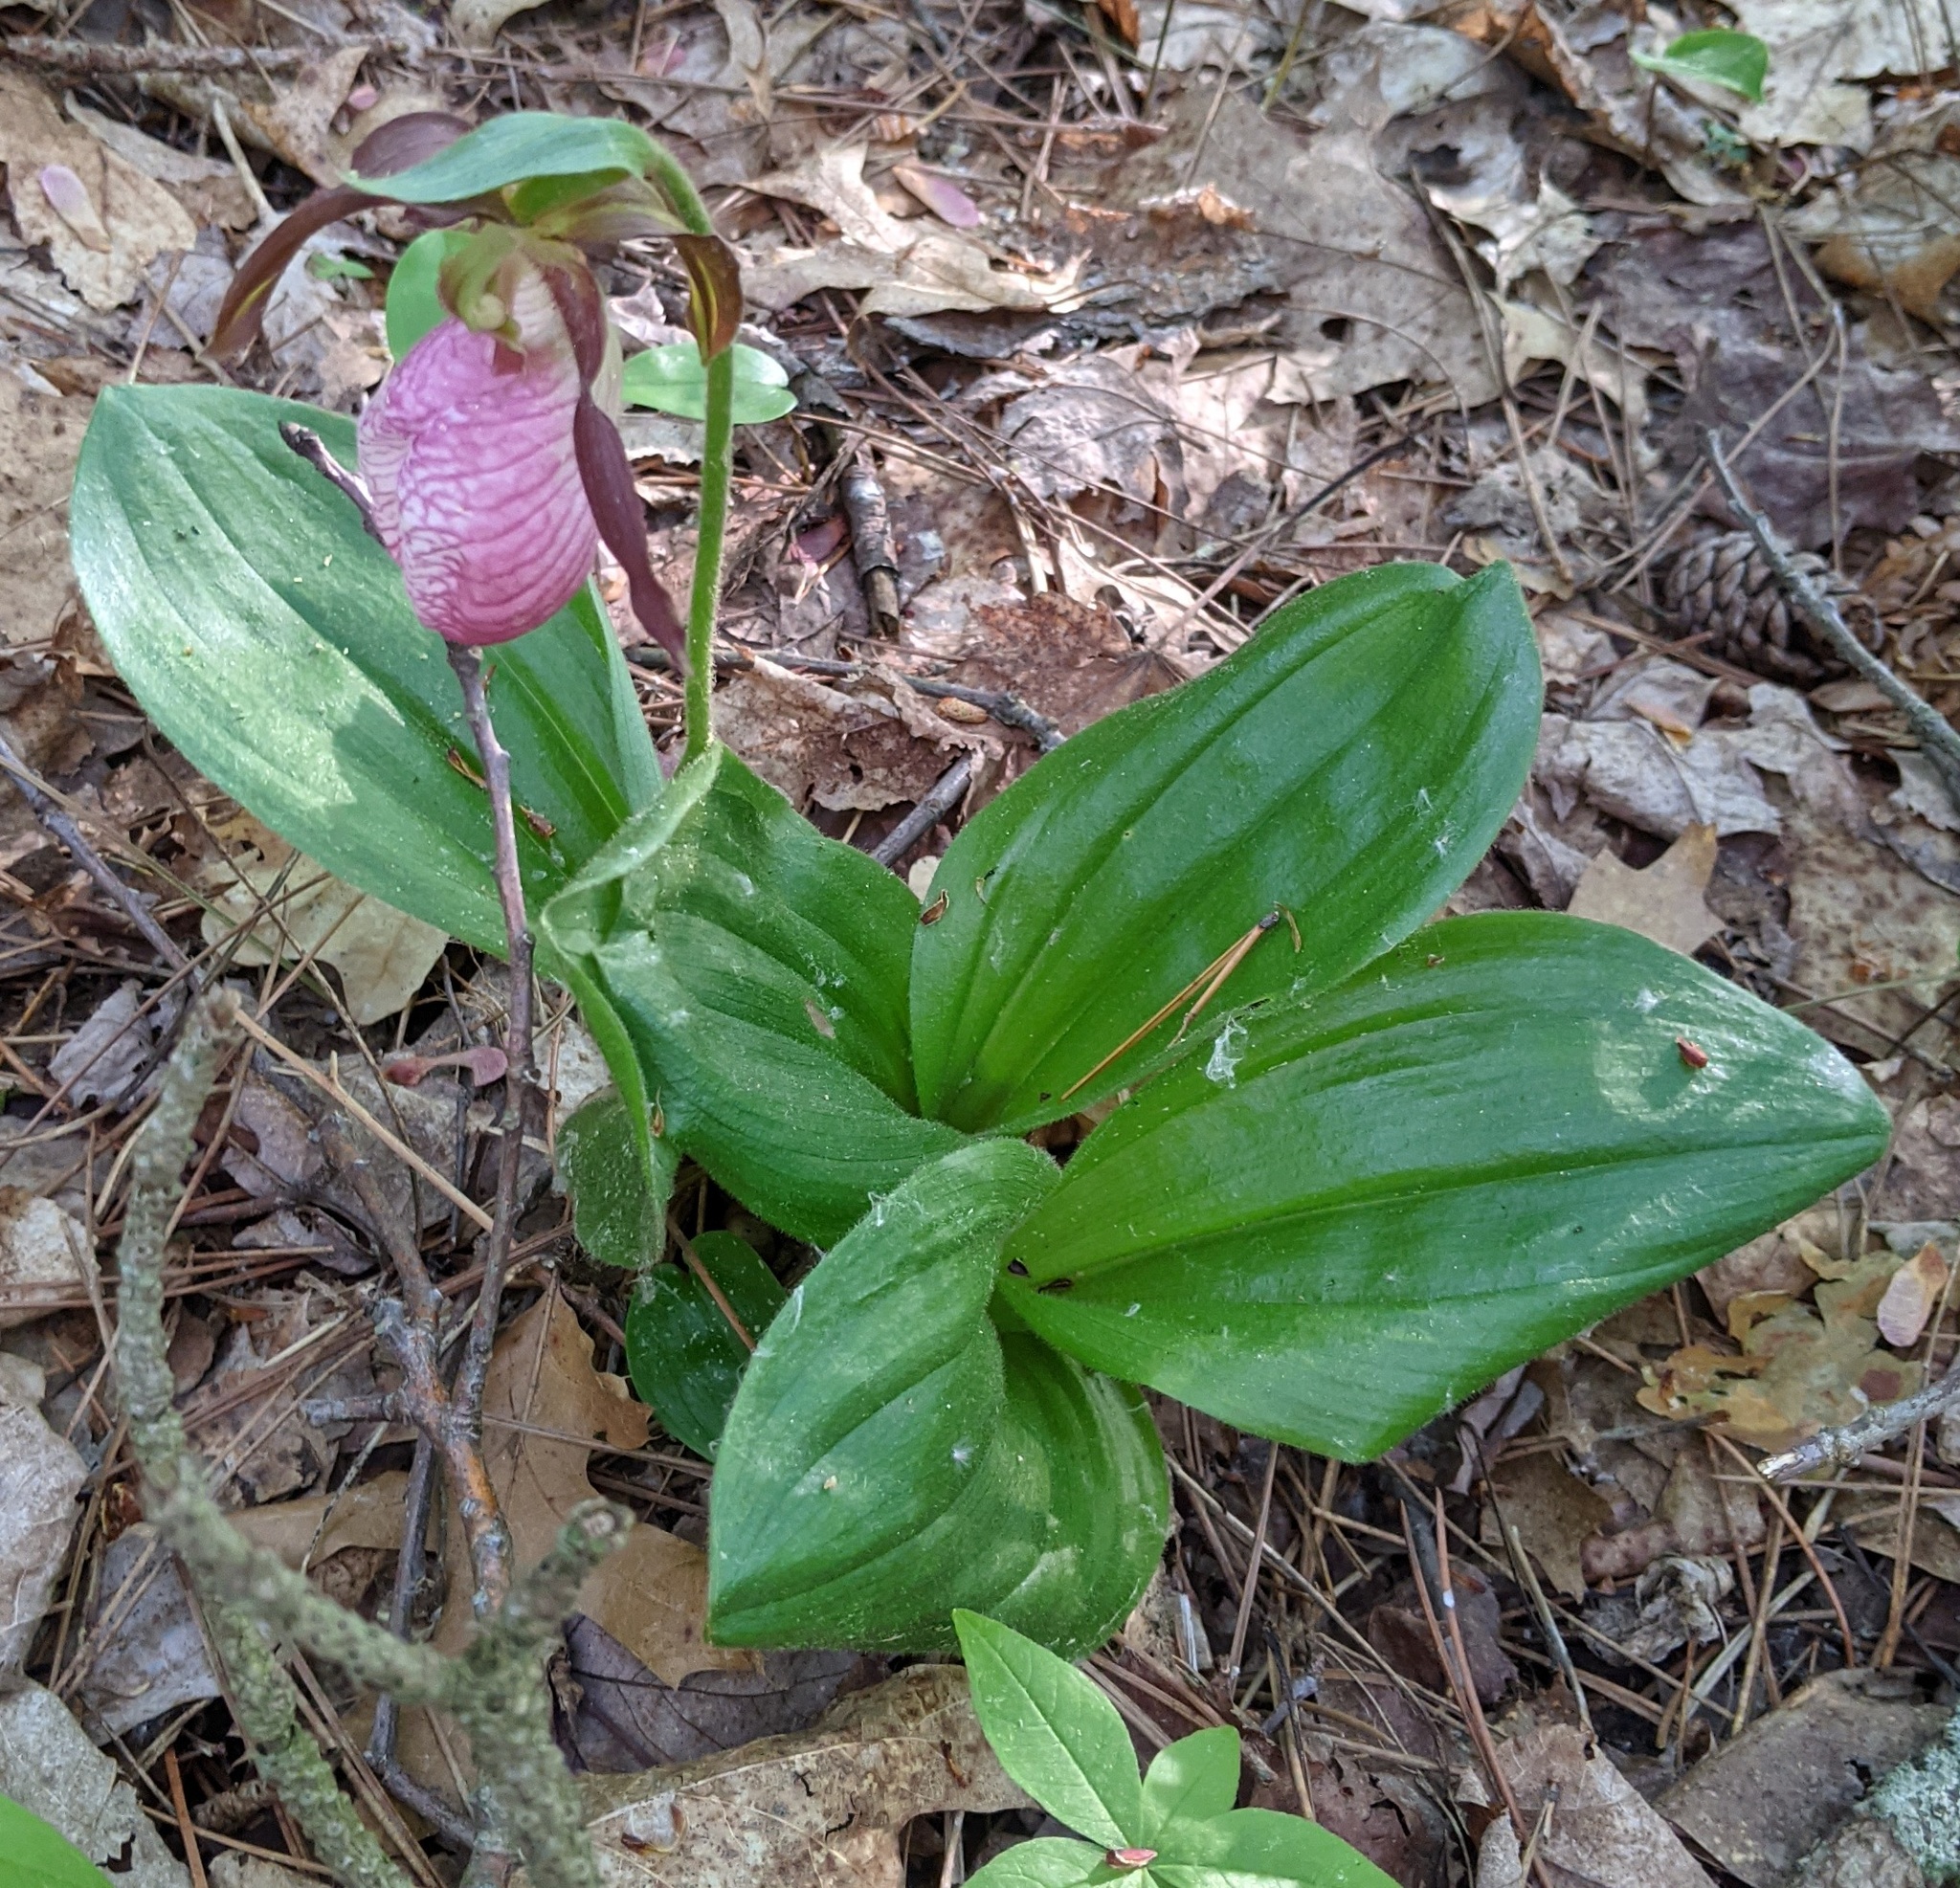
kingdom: Plantae
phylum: Tracheophyta
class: Liliopsida
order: Asparagales
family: Orchidaceae
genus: Cypripedium
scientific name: Cypripedium acaule
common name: Pink lady's-slipper
